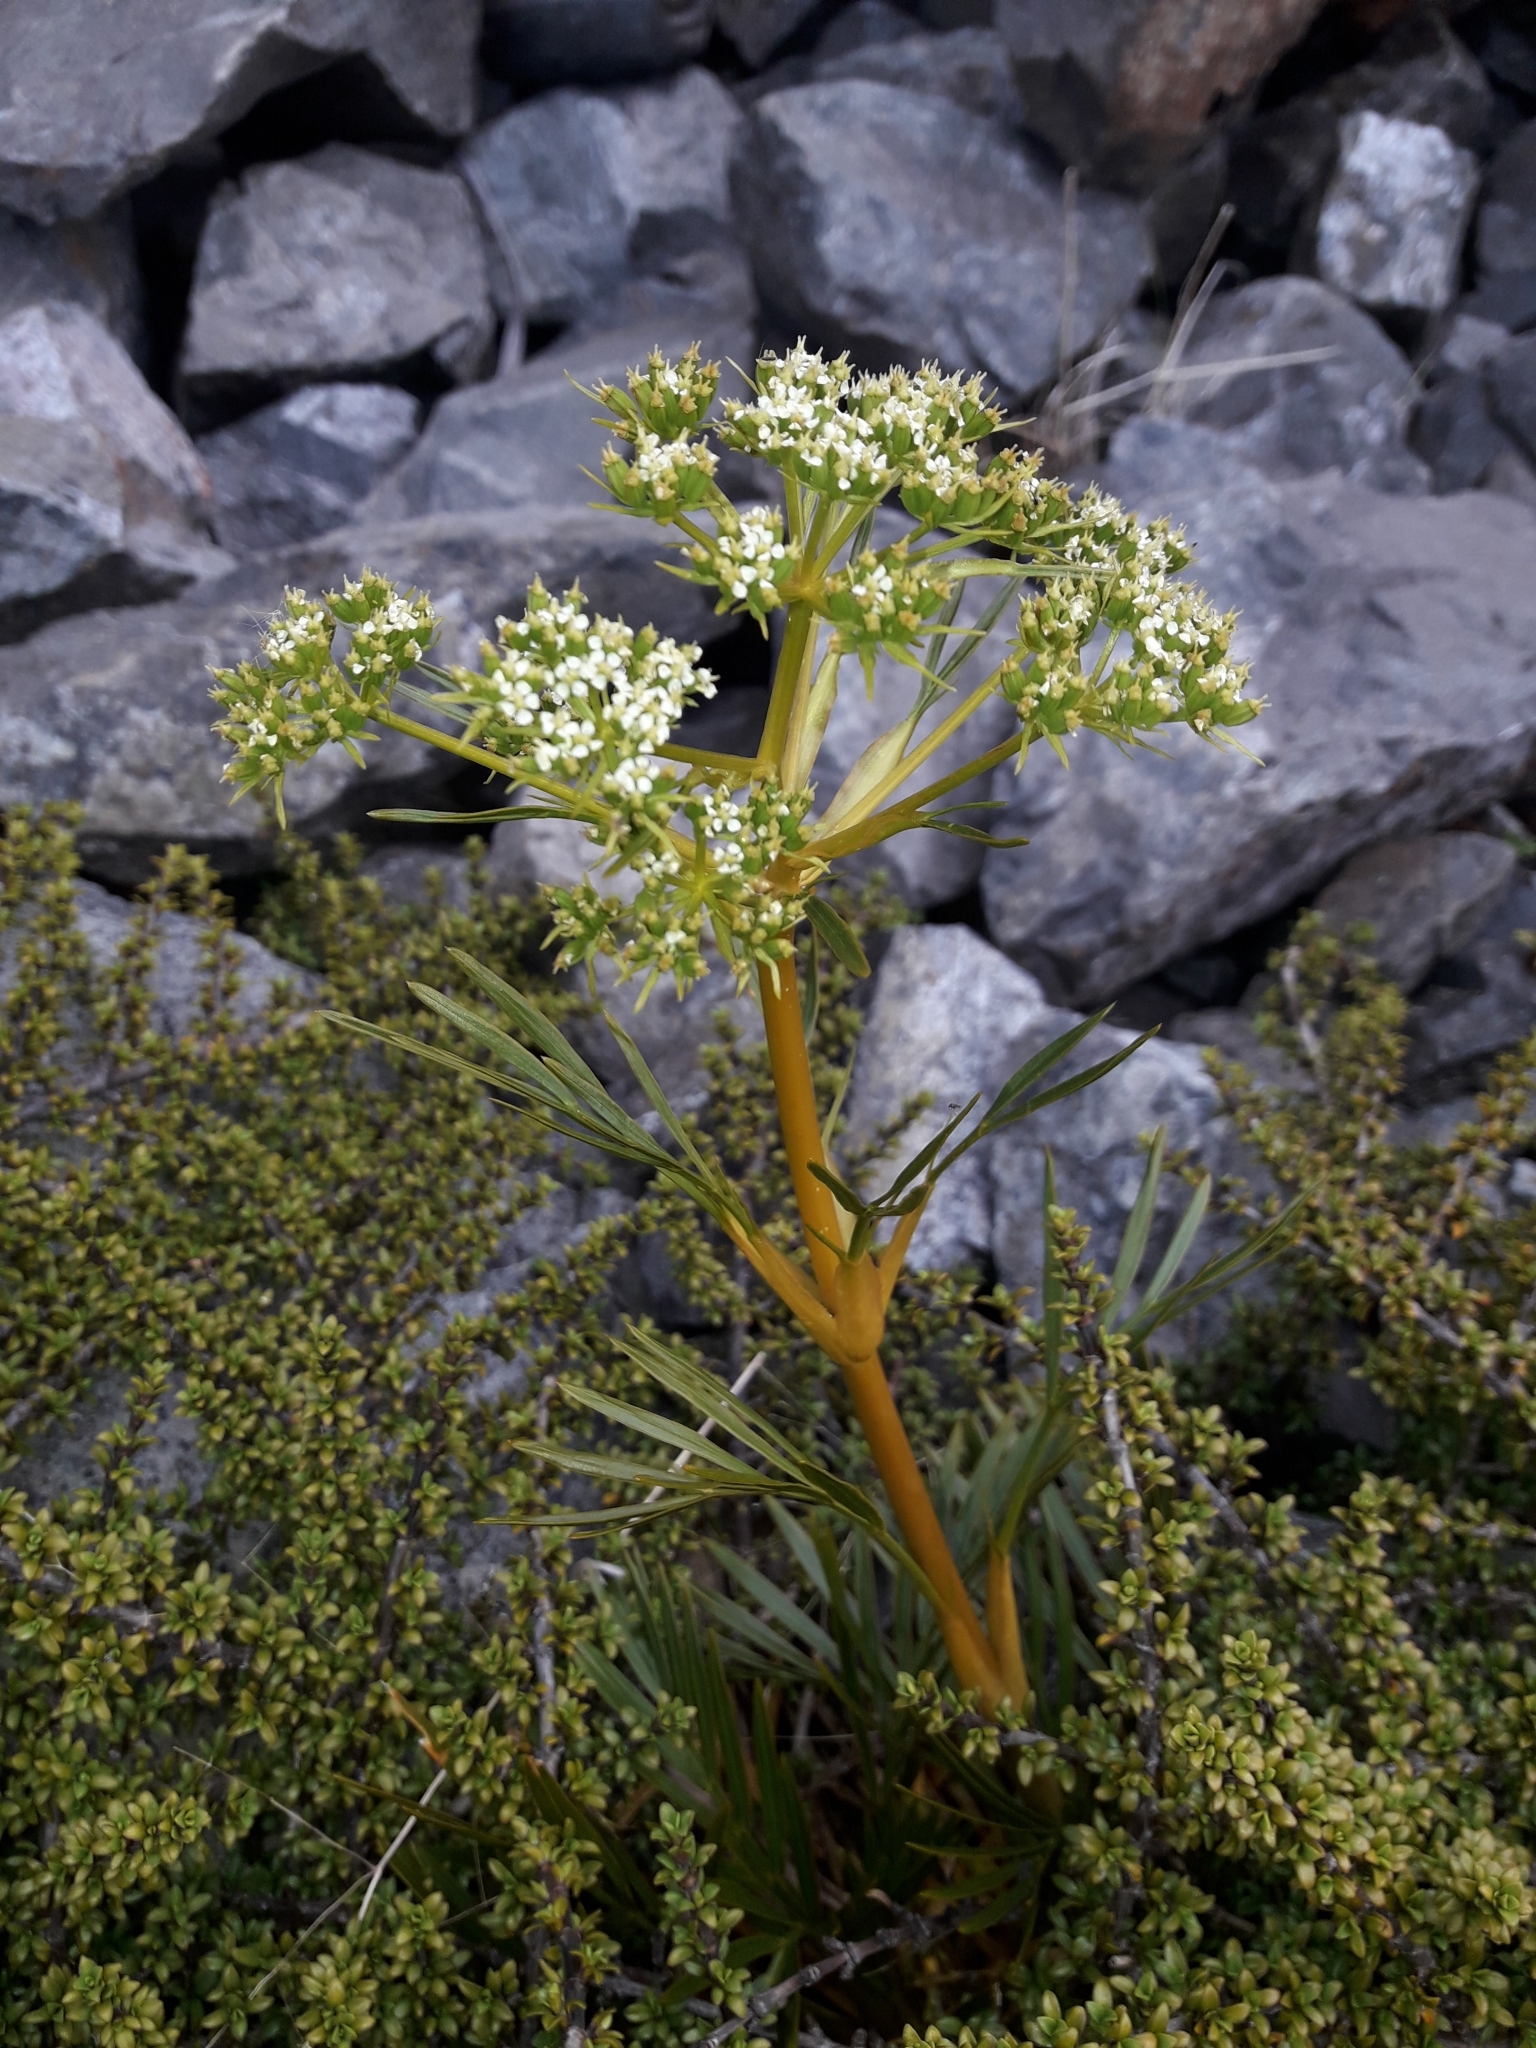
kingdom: Plantae
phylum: Tracheophyta
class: Magnoliopsida
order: Apiales
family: Apiaceae
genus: Aciphylla
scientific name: Aciphylla similis
